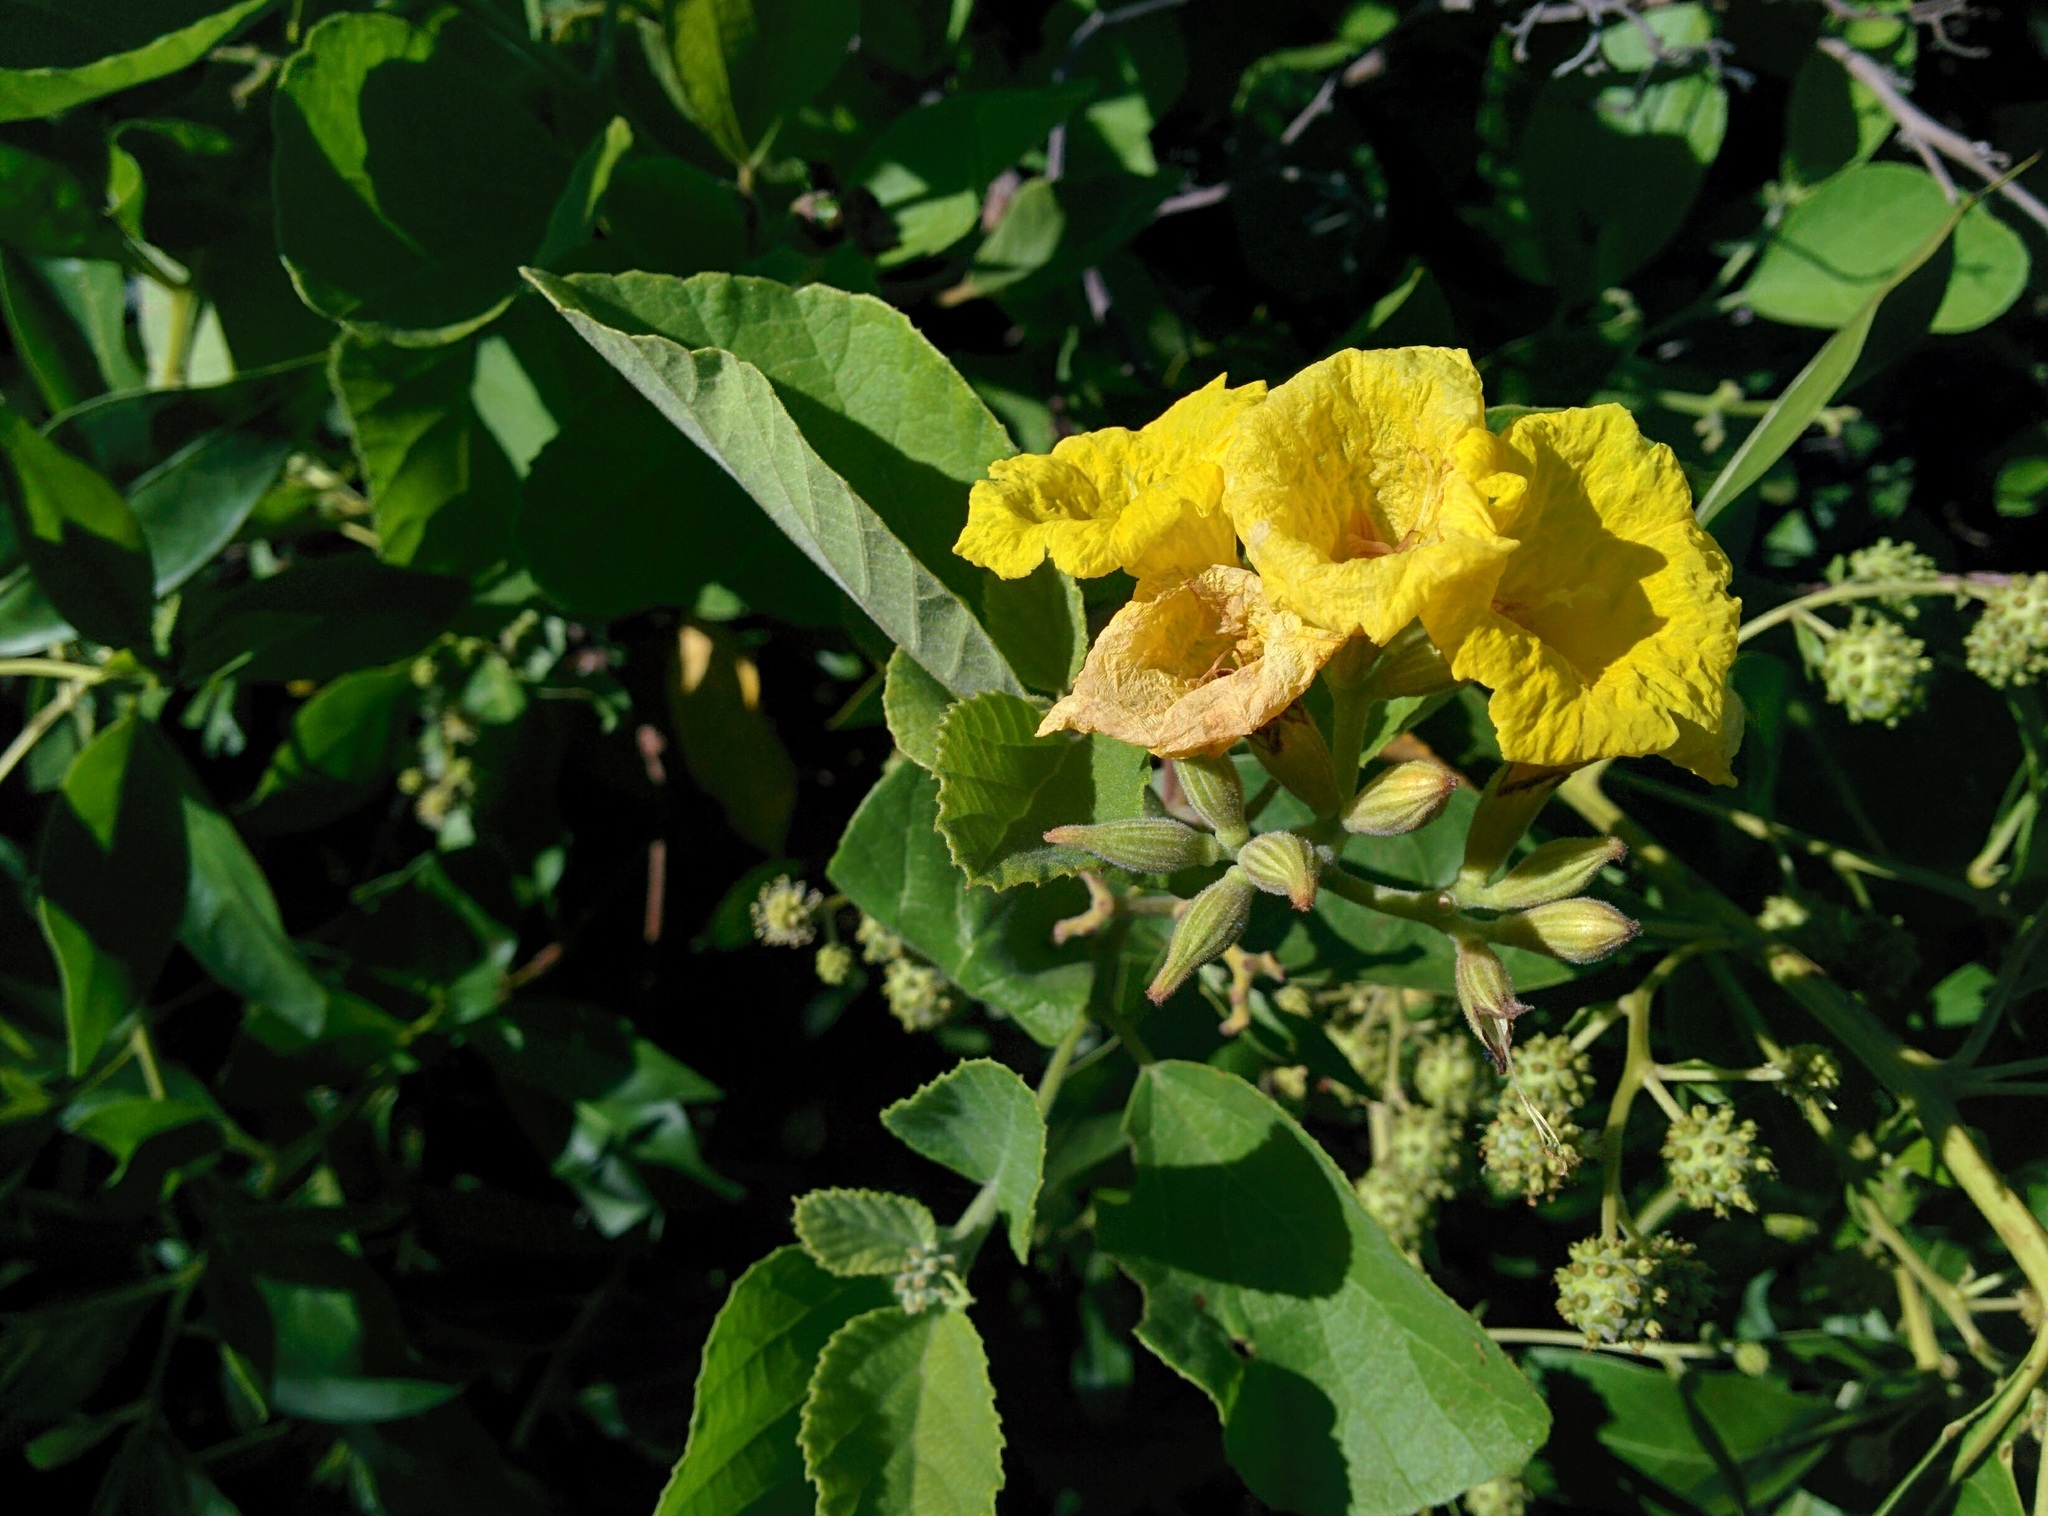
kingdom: Plantae
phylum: Tracheophyta
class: Magnoliopsida
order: Boraginales
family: Cordiaceae
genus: Cordia
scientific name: Cordia lutea
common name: Yellow geiger
